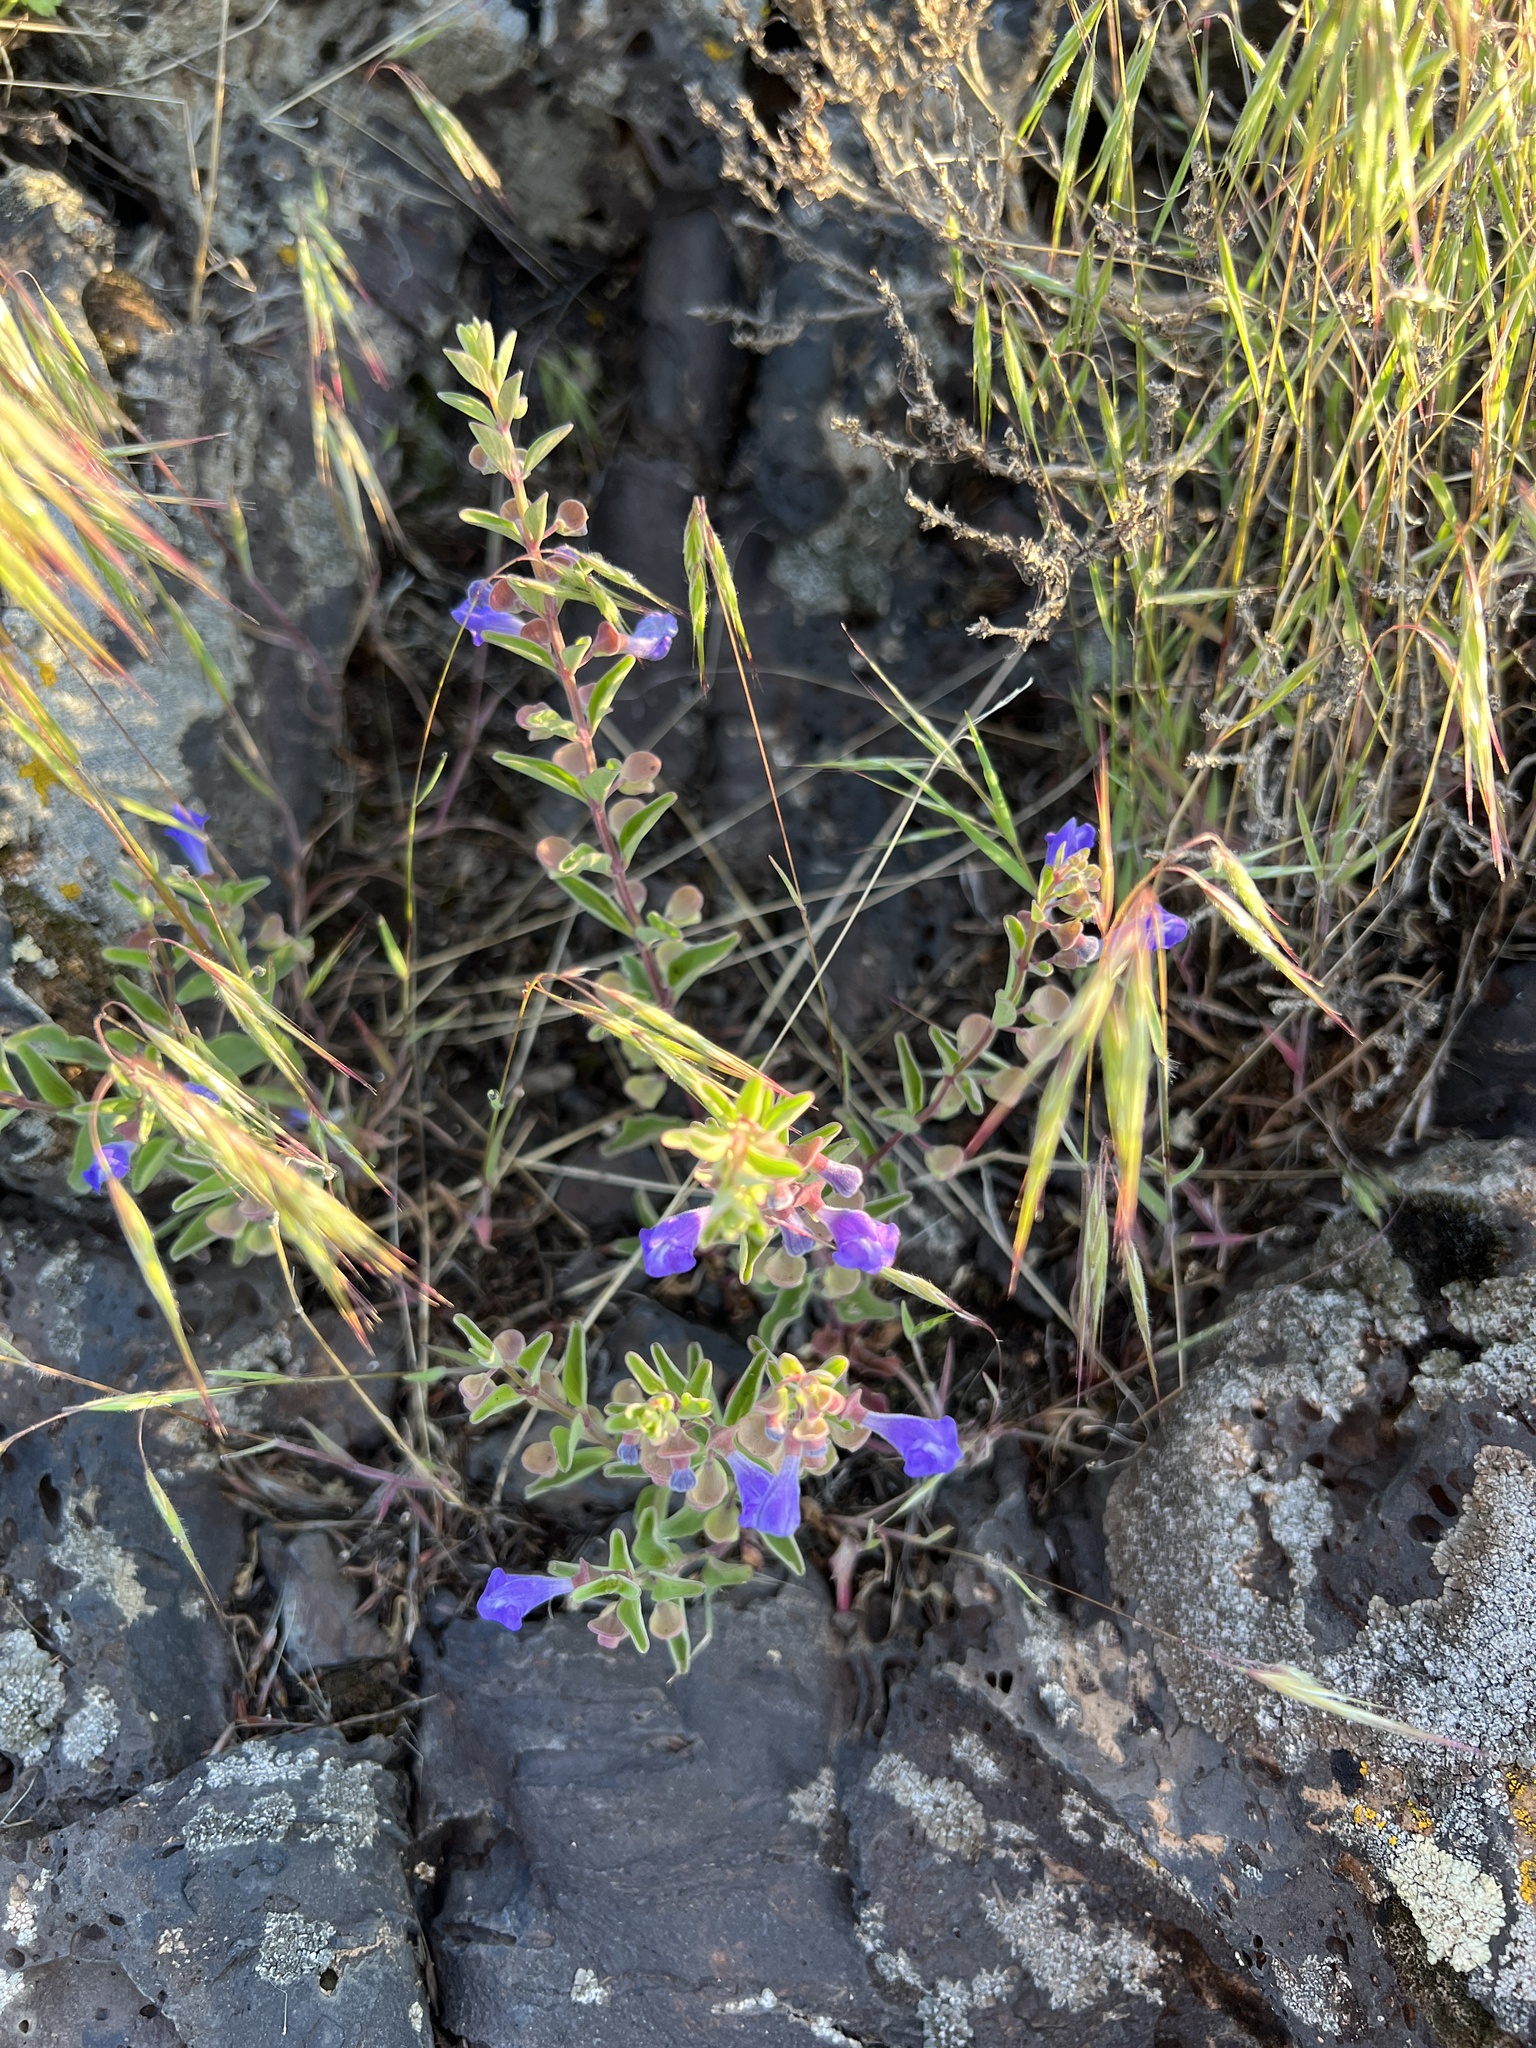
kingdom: Plantae
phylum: Tracheophyta
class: Magnoliopsida
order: Lamiales
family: Lamiaceae
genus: Scutellaria
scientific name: Scutellaria angustifolia
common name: Narrow-leaved skullcap
